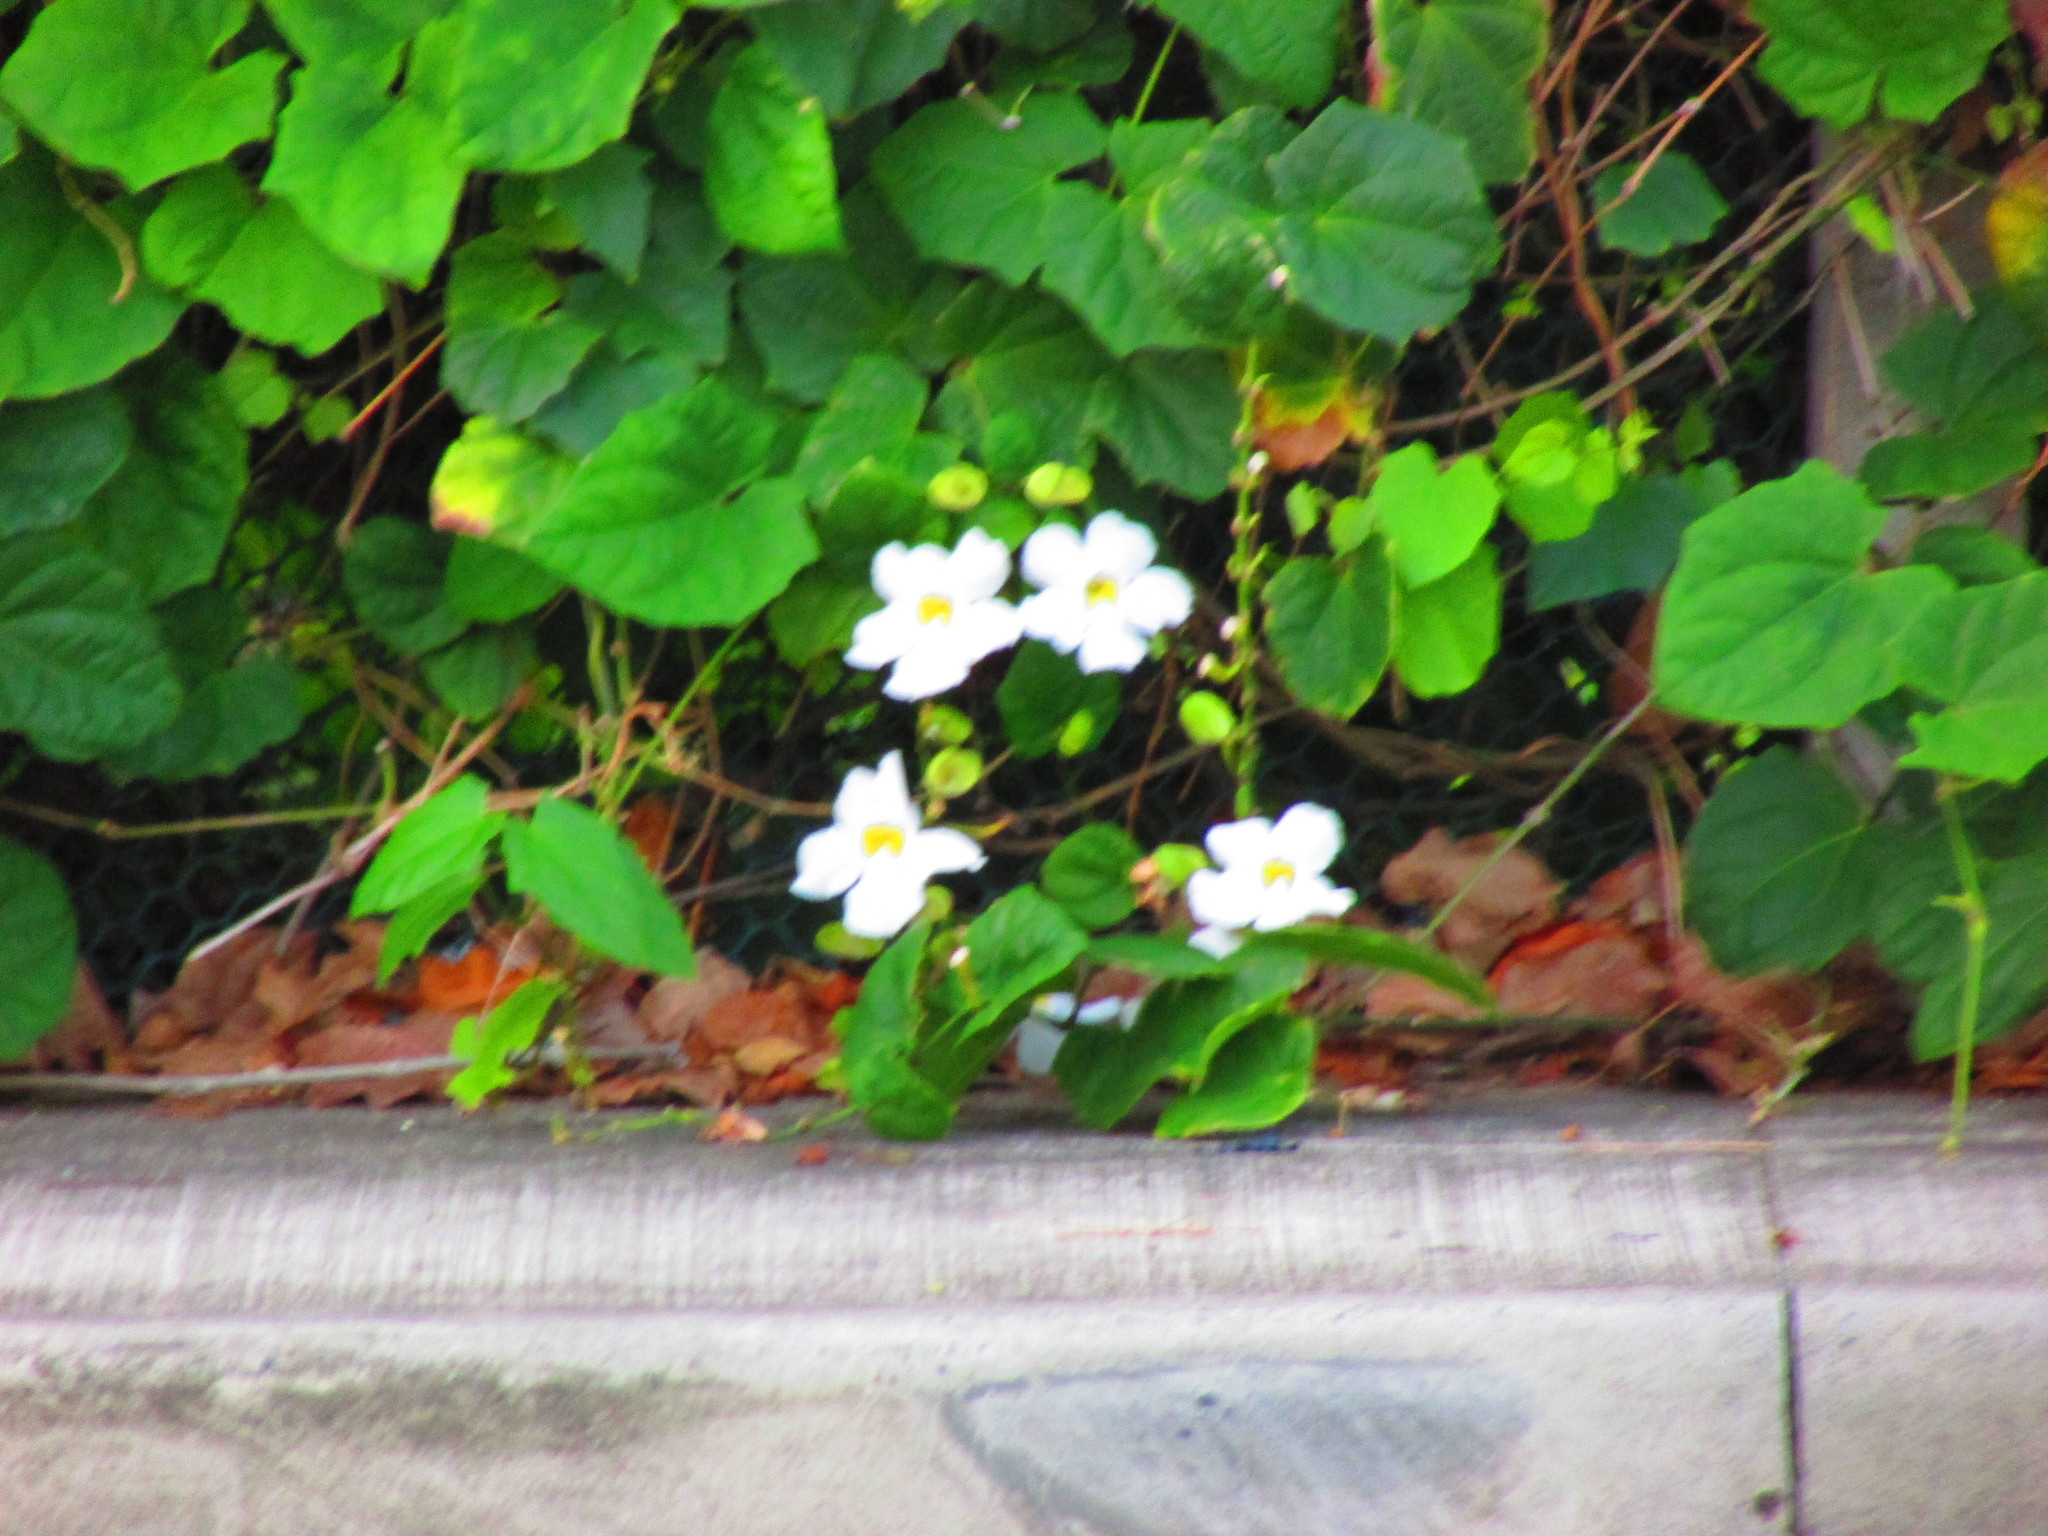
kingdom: Plantae
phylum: Tracheophyta
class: Magnoliopsida
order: Ranunculales
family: Ranunculaceae
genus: Eriocapitella
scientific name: Eriocapitella hybrida
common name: Japanese anemone
